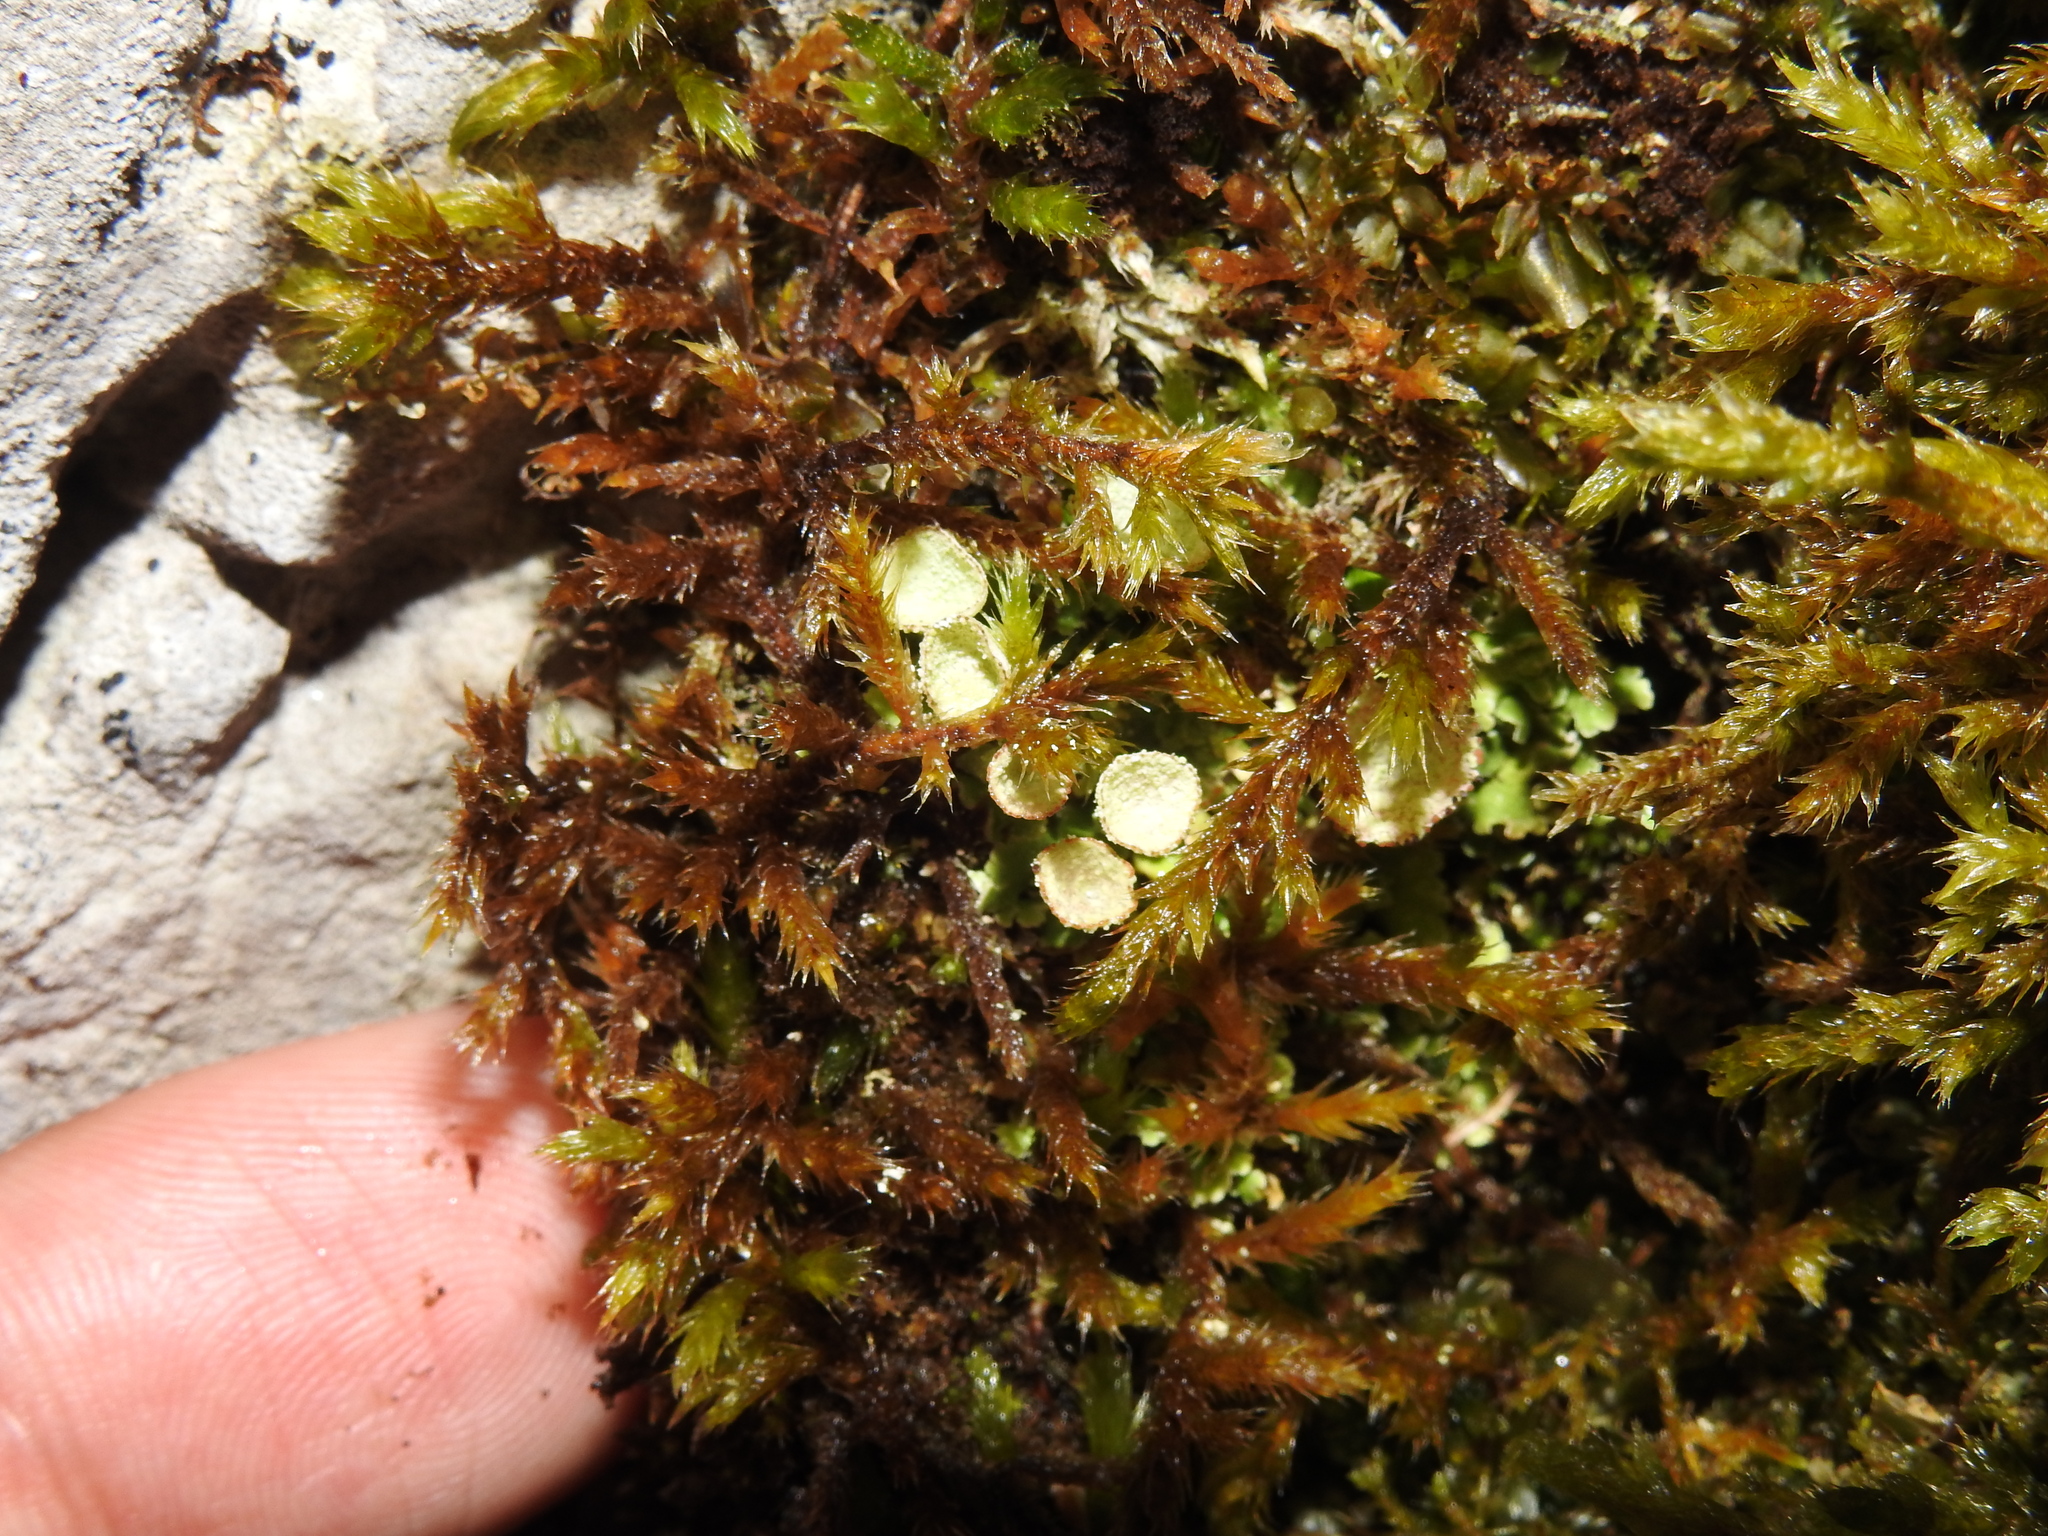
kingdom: Fungi
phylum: Ascomycota
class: Lecanoromycetes
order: Lecanorales
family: Cladoniaceae
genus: Cladonia
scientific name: Cladonia pocillum
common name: Rosette pixie-cup lichen
